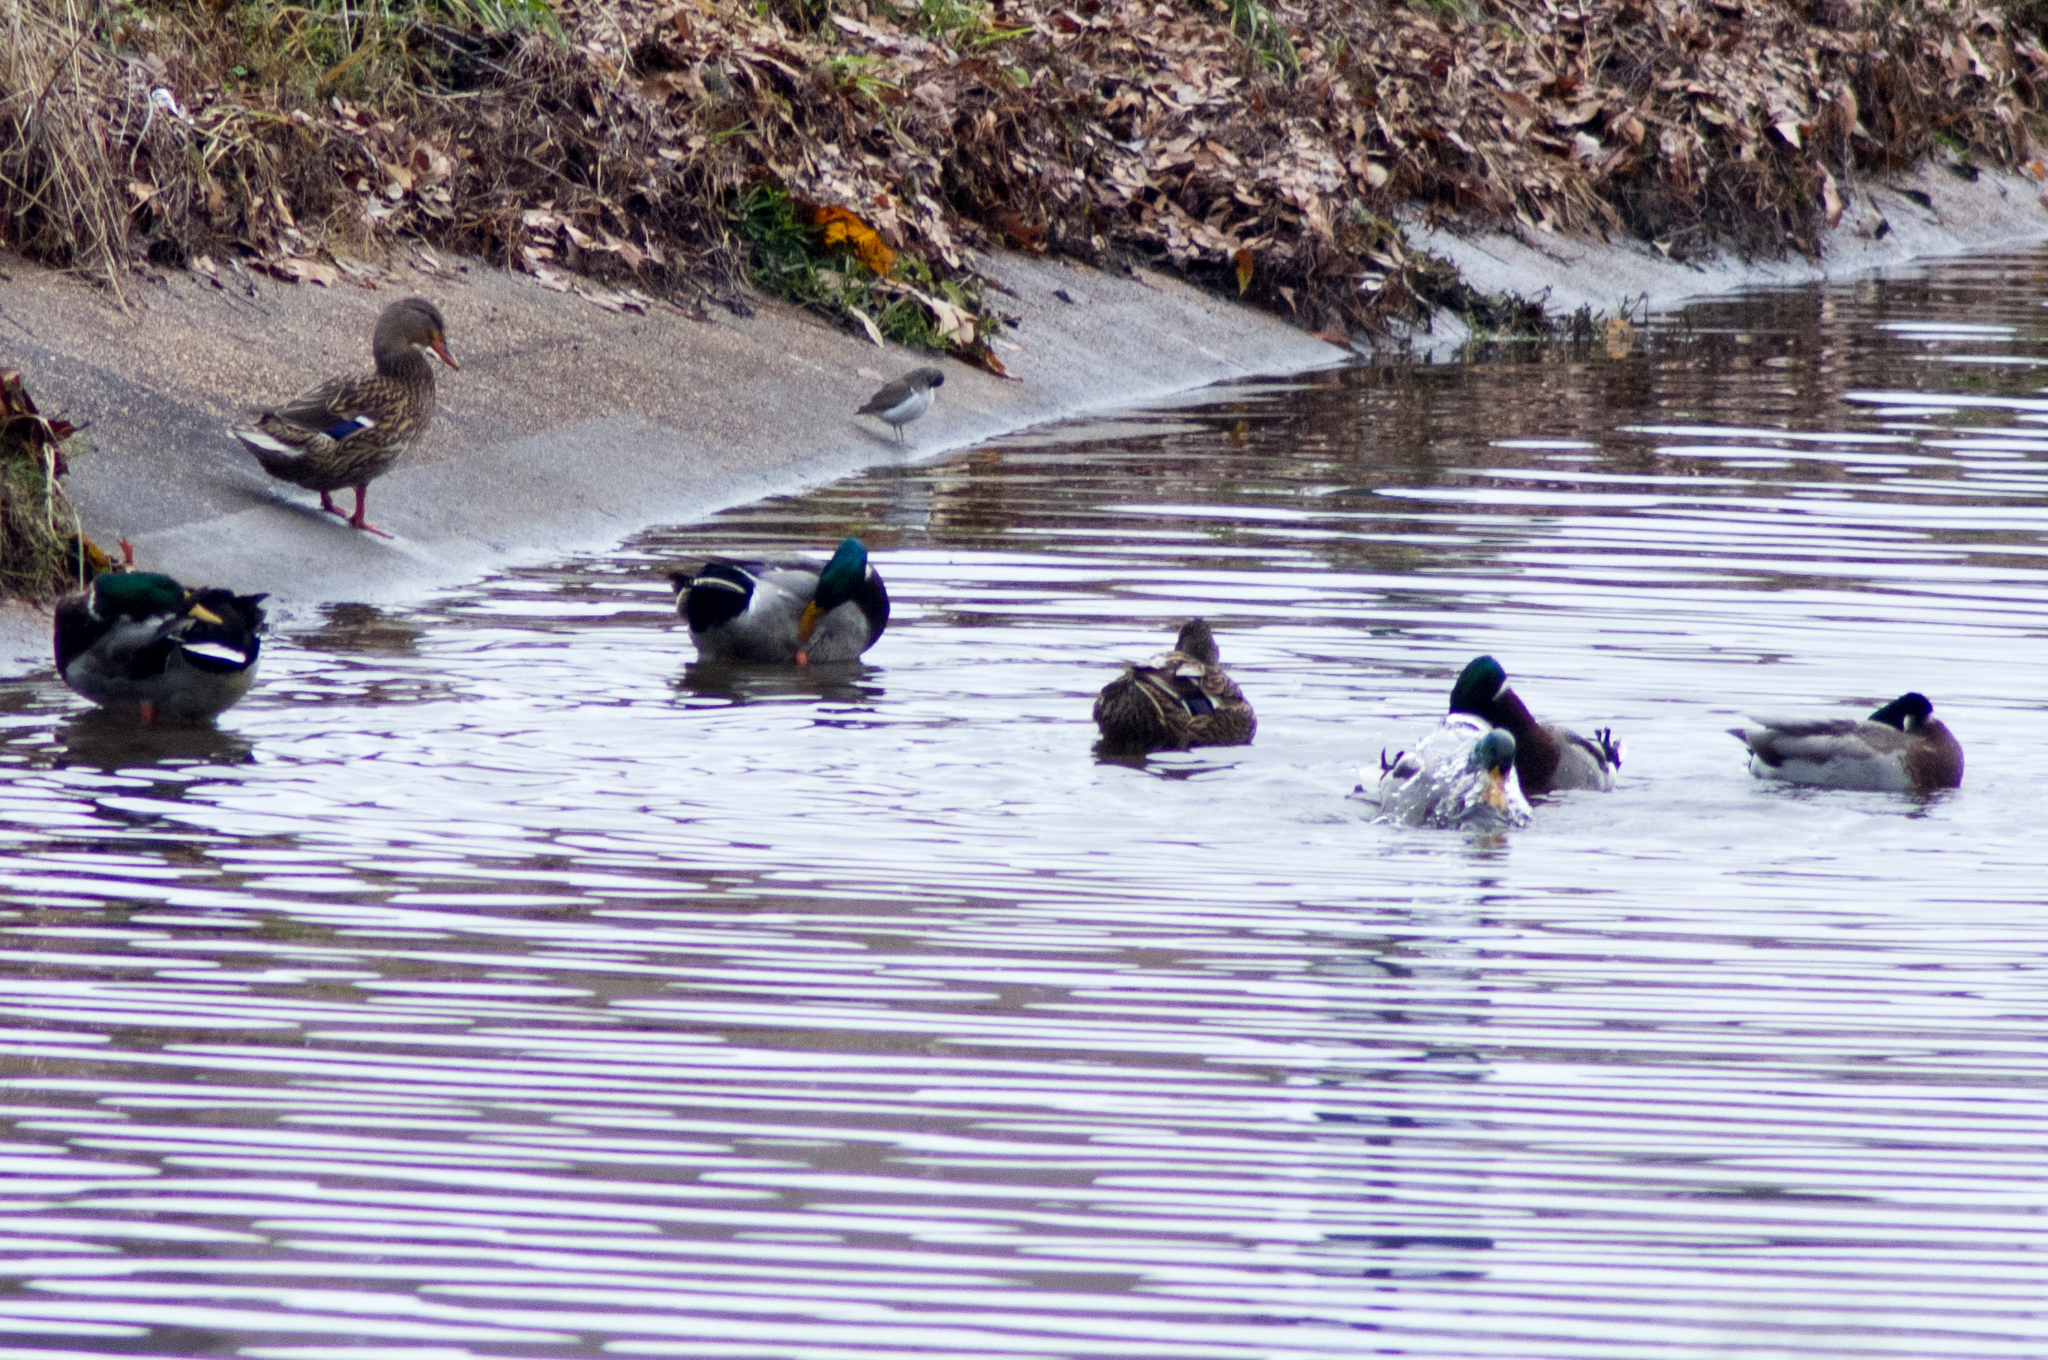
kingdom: Animalia
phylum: Chordata
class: Aves
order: Anseriformes
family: Anatidae
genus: Anas
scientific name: Anas platyrhynchos
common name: Mallard
